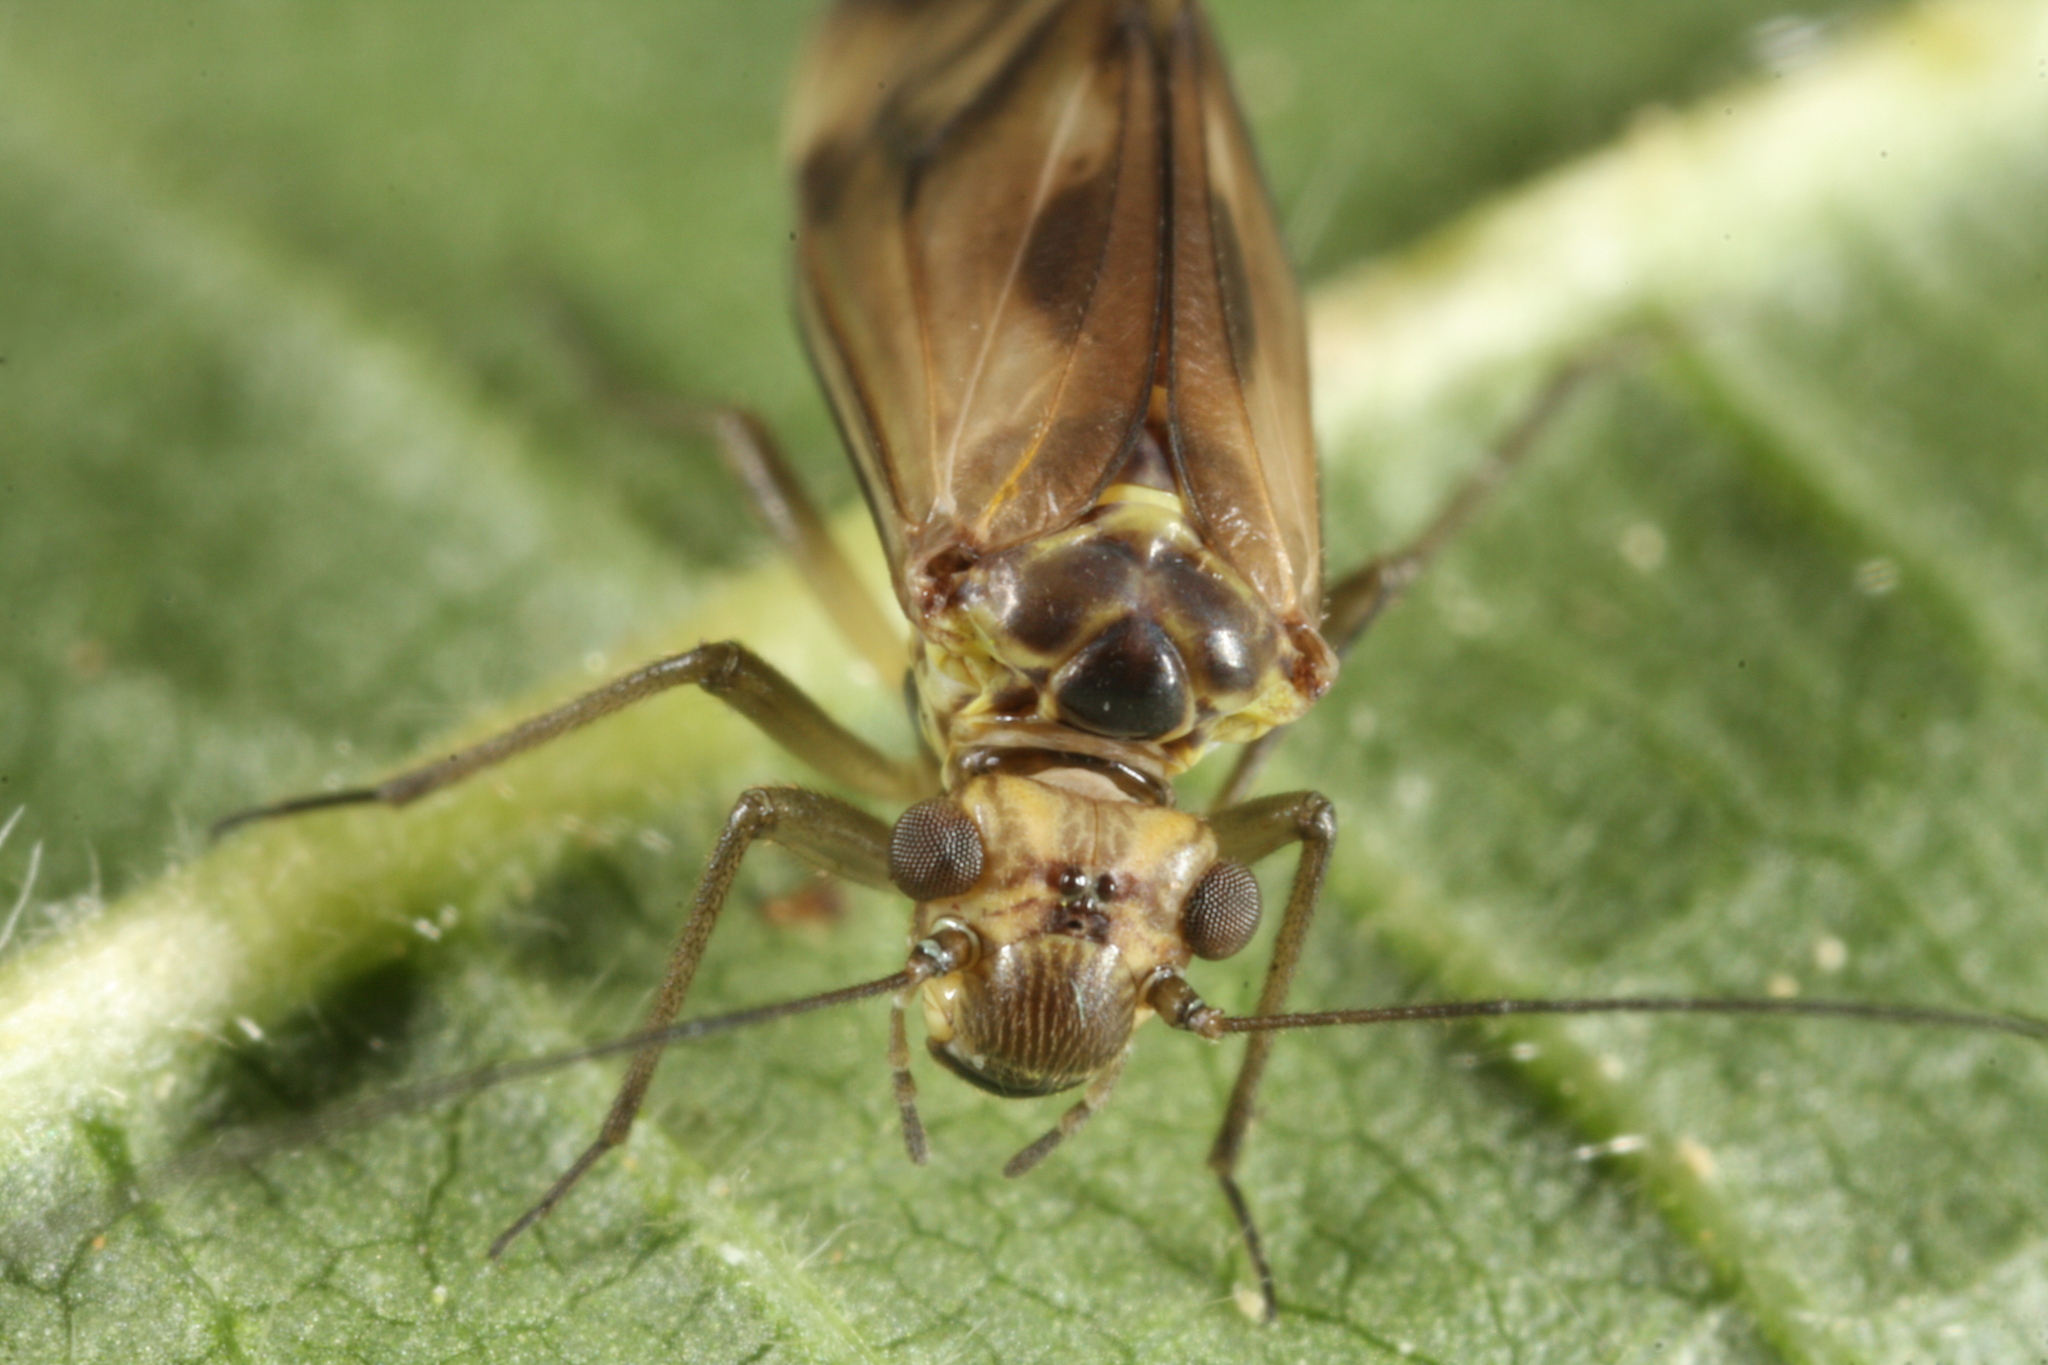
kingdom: Animalia
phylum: Arthropoda
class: Insecta
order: Psocodea
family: Psocidae
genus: Metylophorus
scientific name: Metylophorus nebulosus
